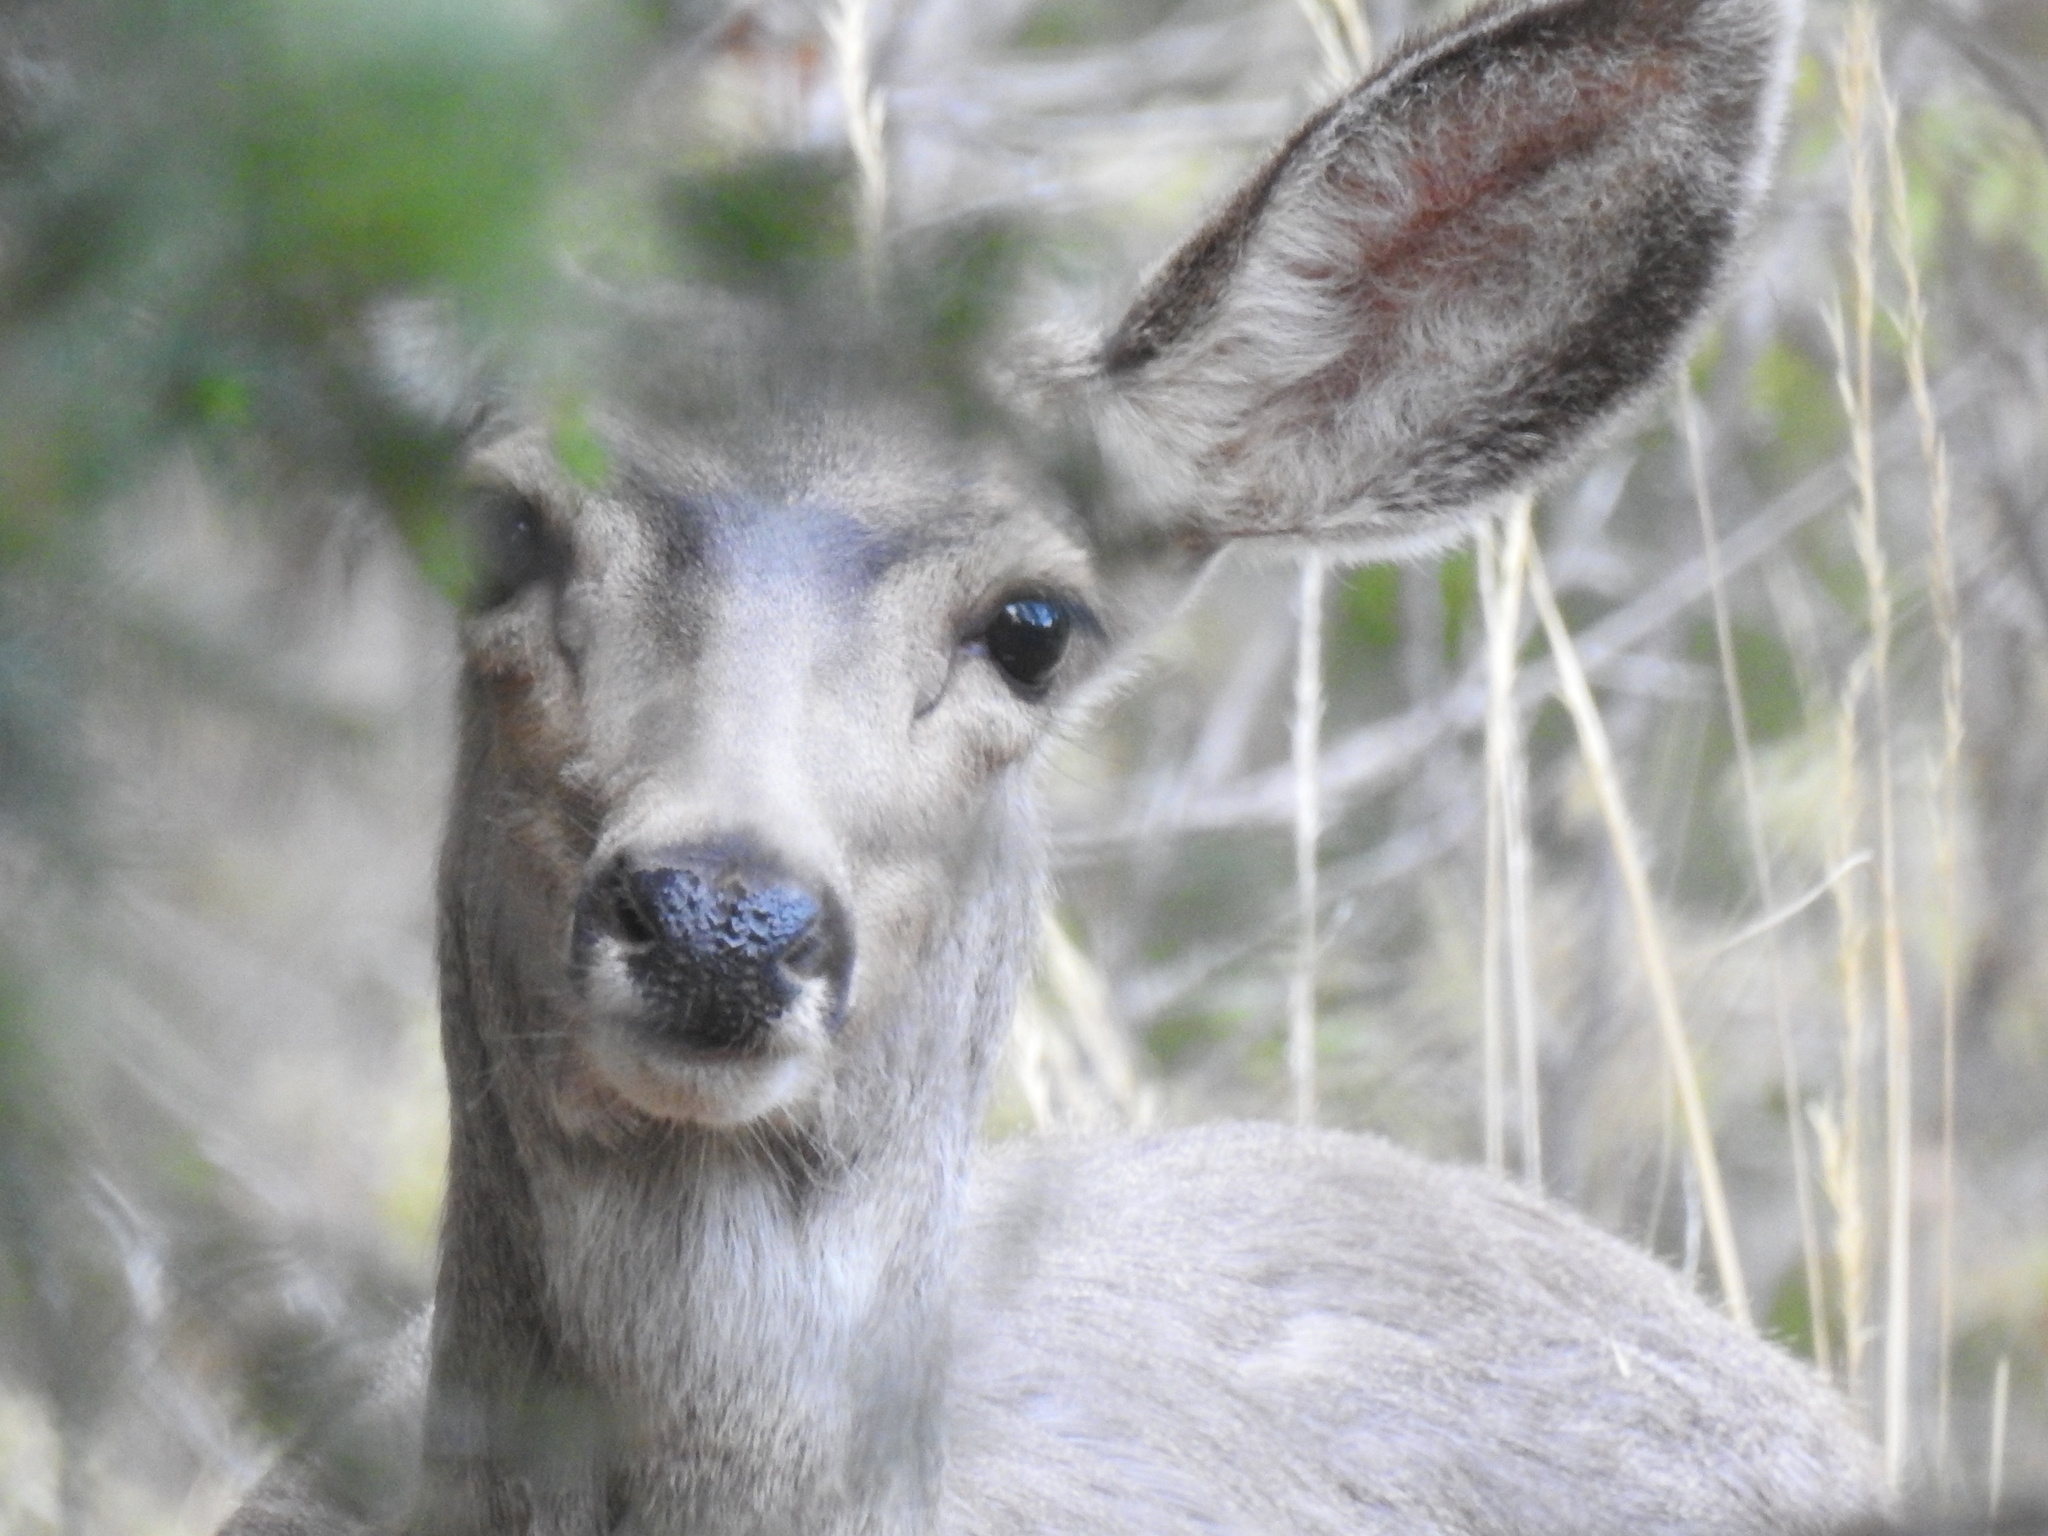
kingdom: Animalia
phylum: Chordata
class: Mammalia
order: Artiodactyla
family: Cervidae
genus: Odocoileus
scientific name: Odocoileus hemionus
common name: Mule deer
